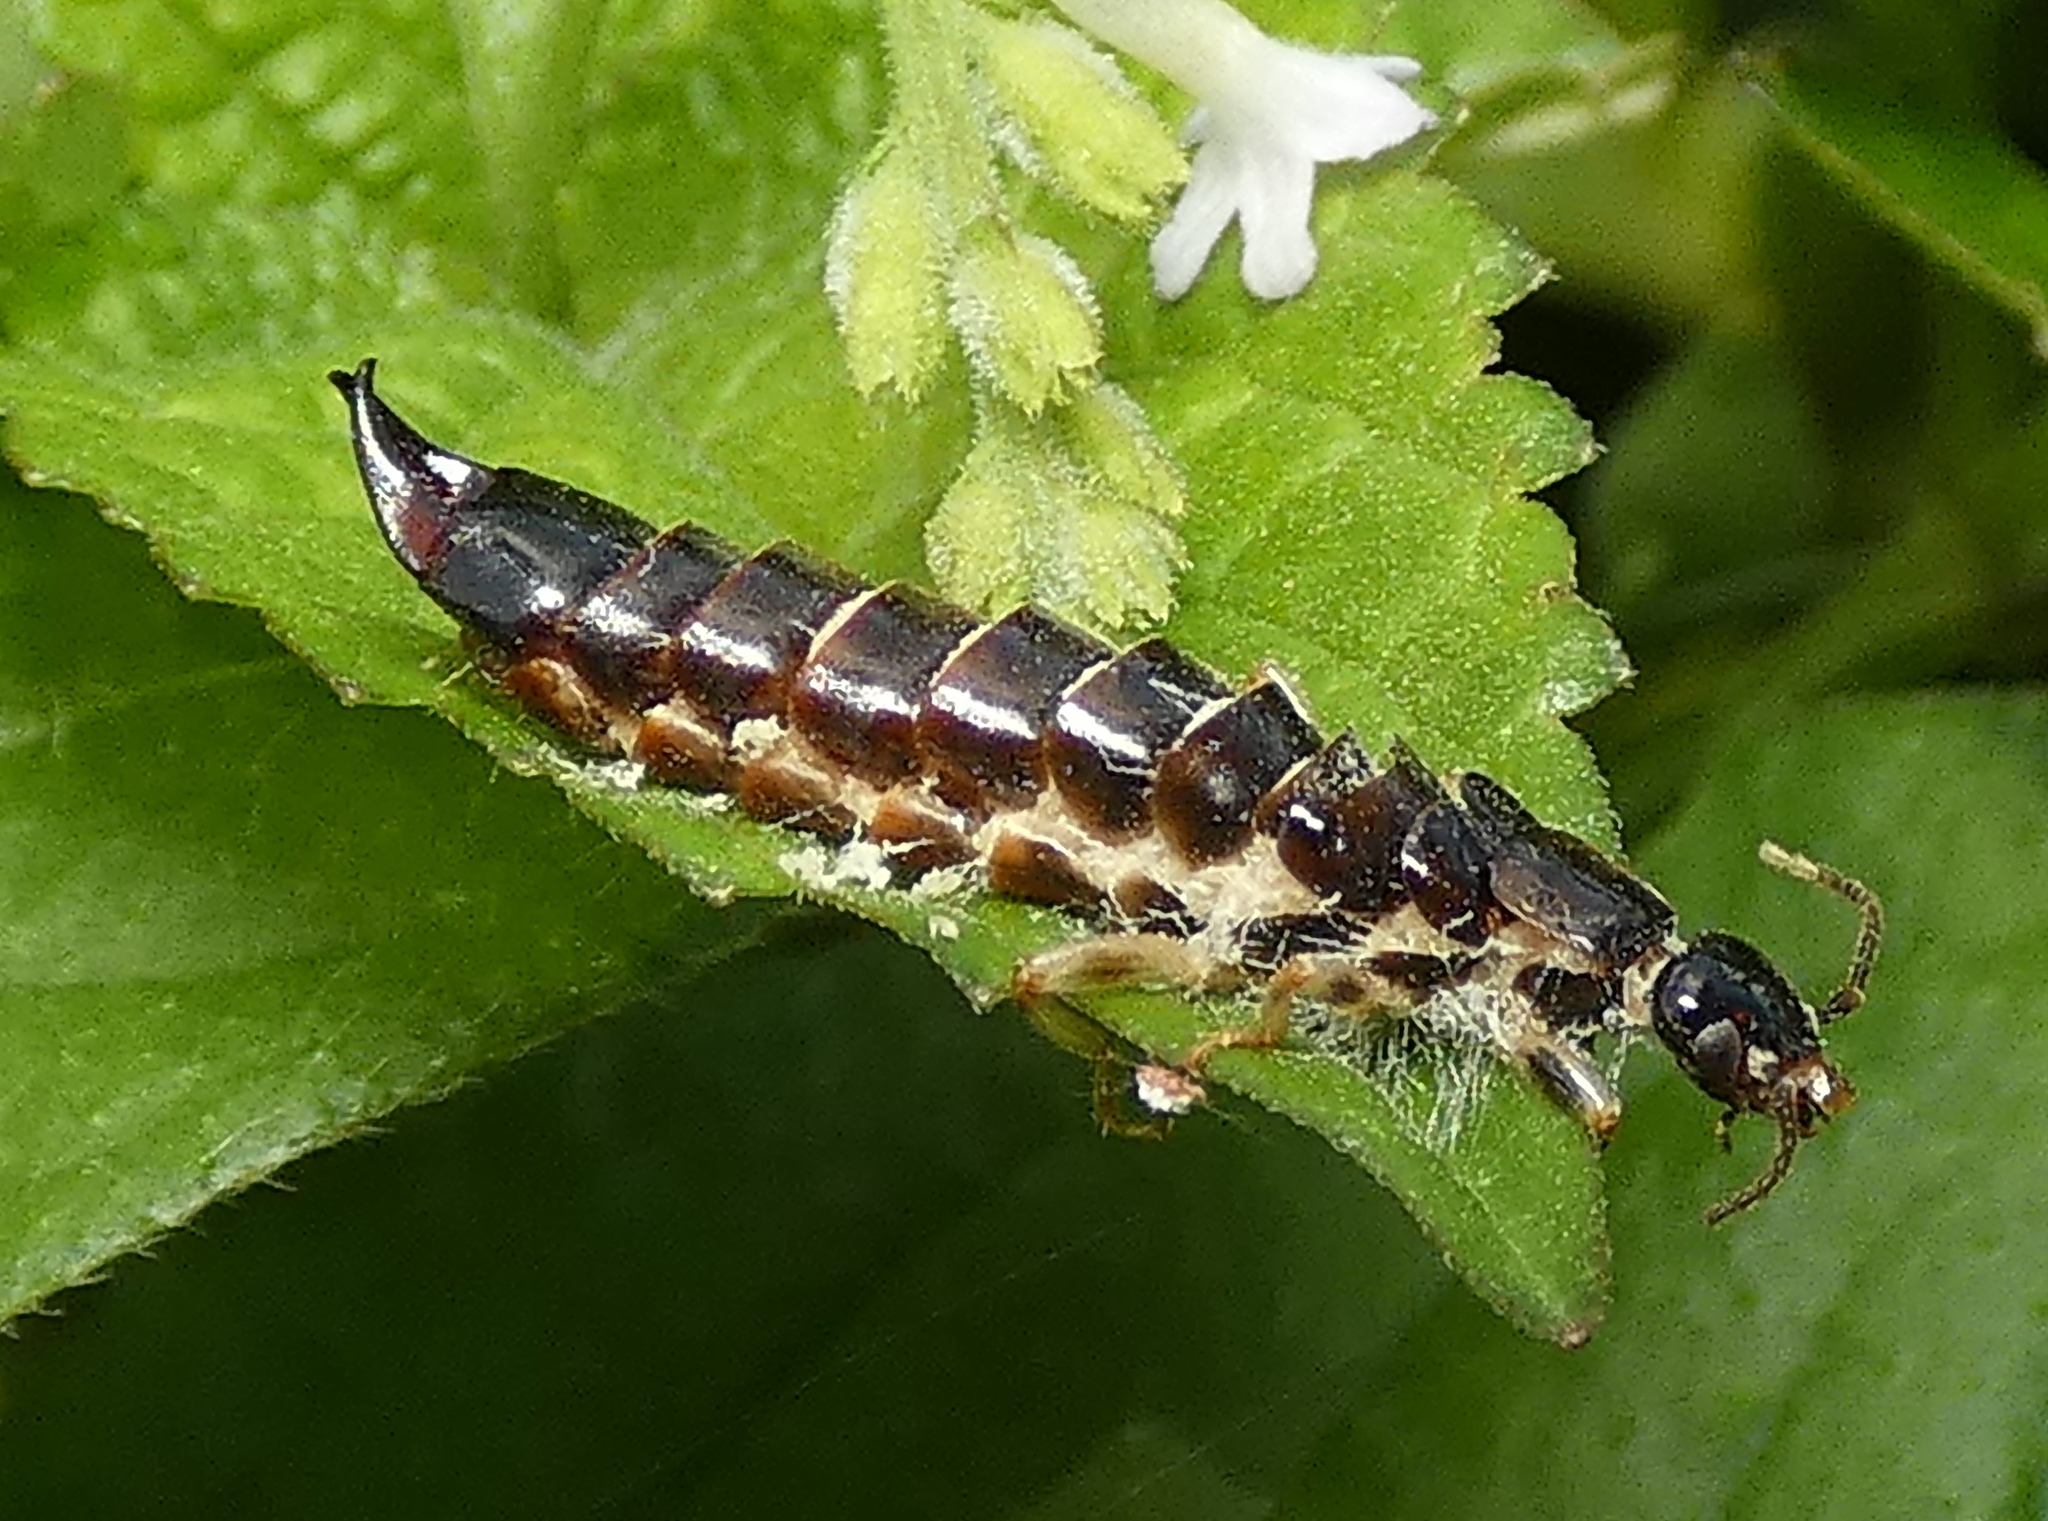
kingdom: Animalia
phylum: Arthropoda
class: Insecta
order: Dermaptera
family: Anisolabididae
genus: Euborellia
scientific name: Euborellia janeirensis
